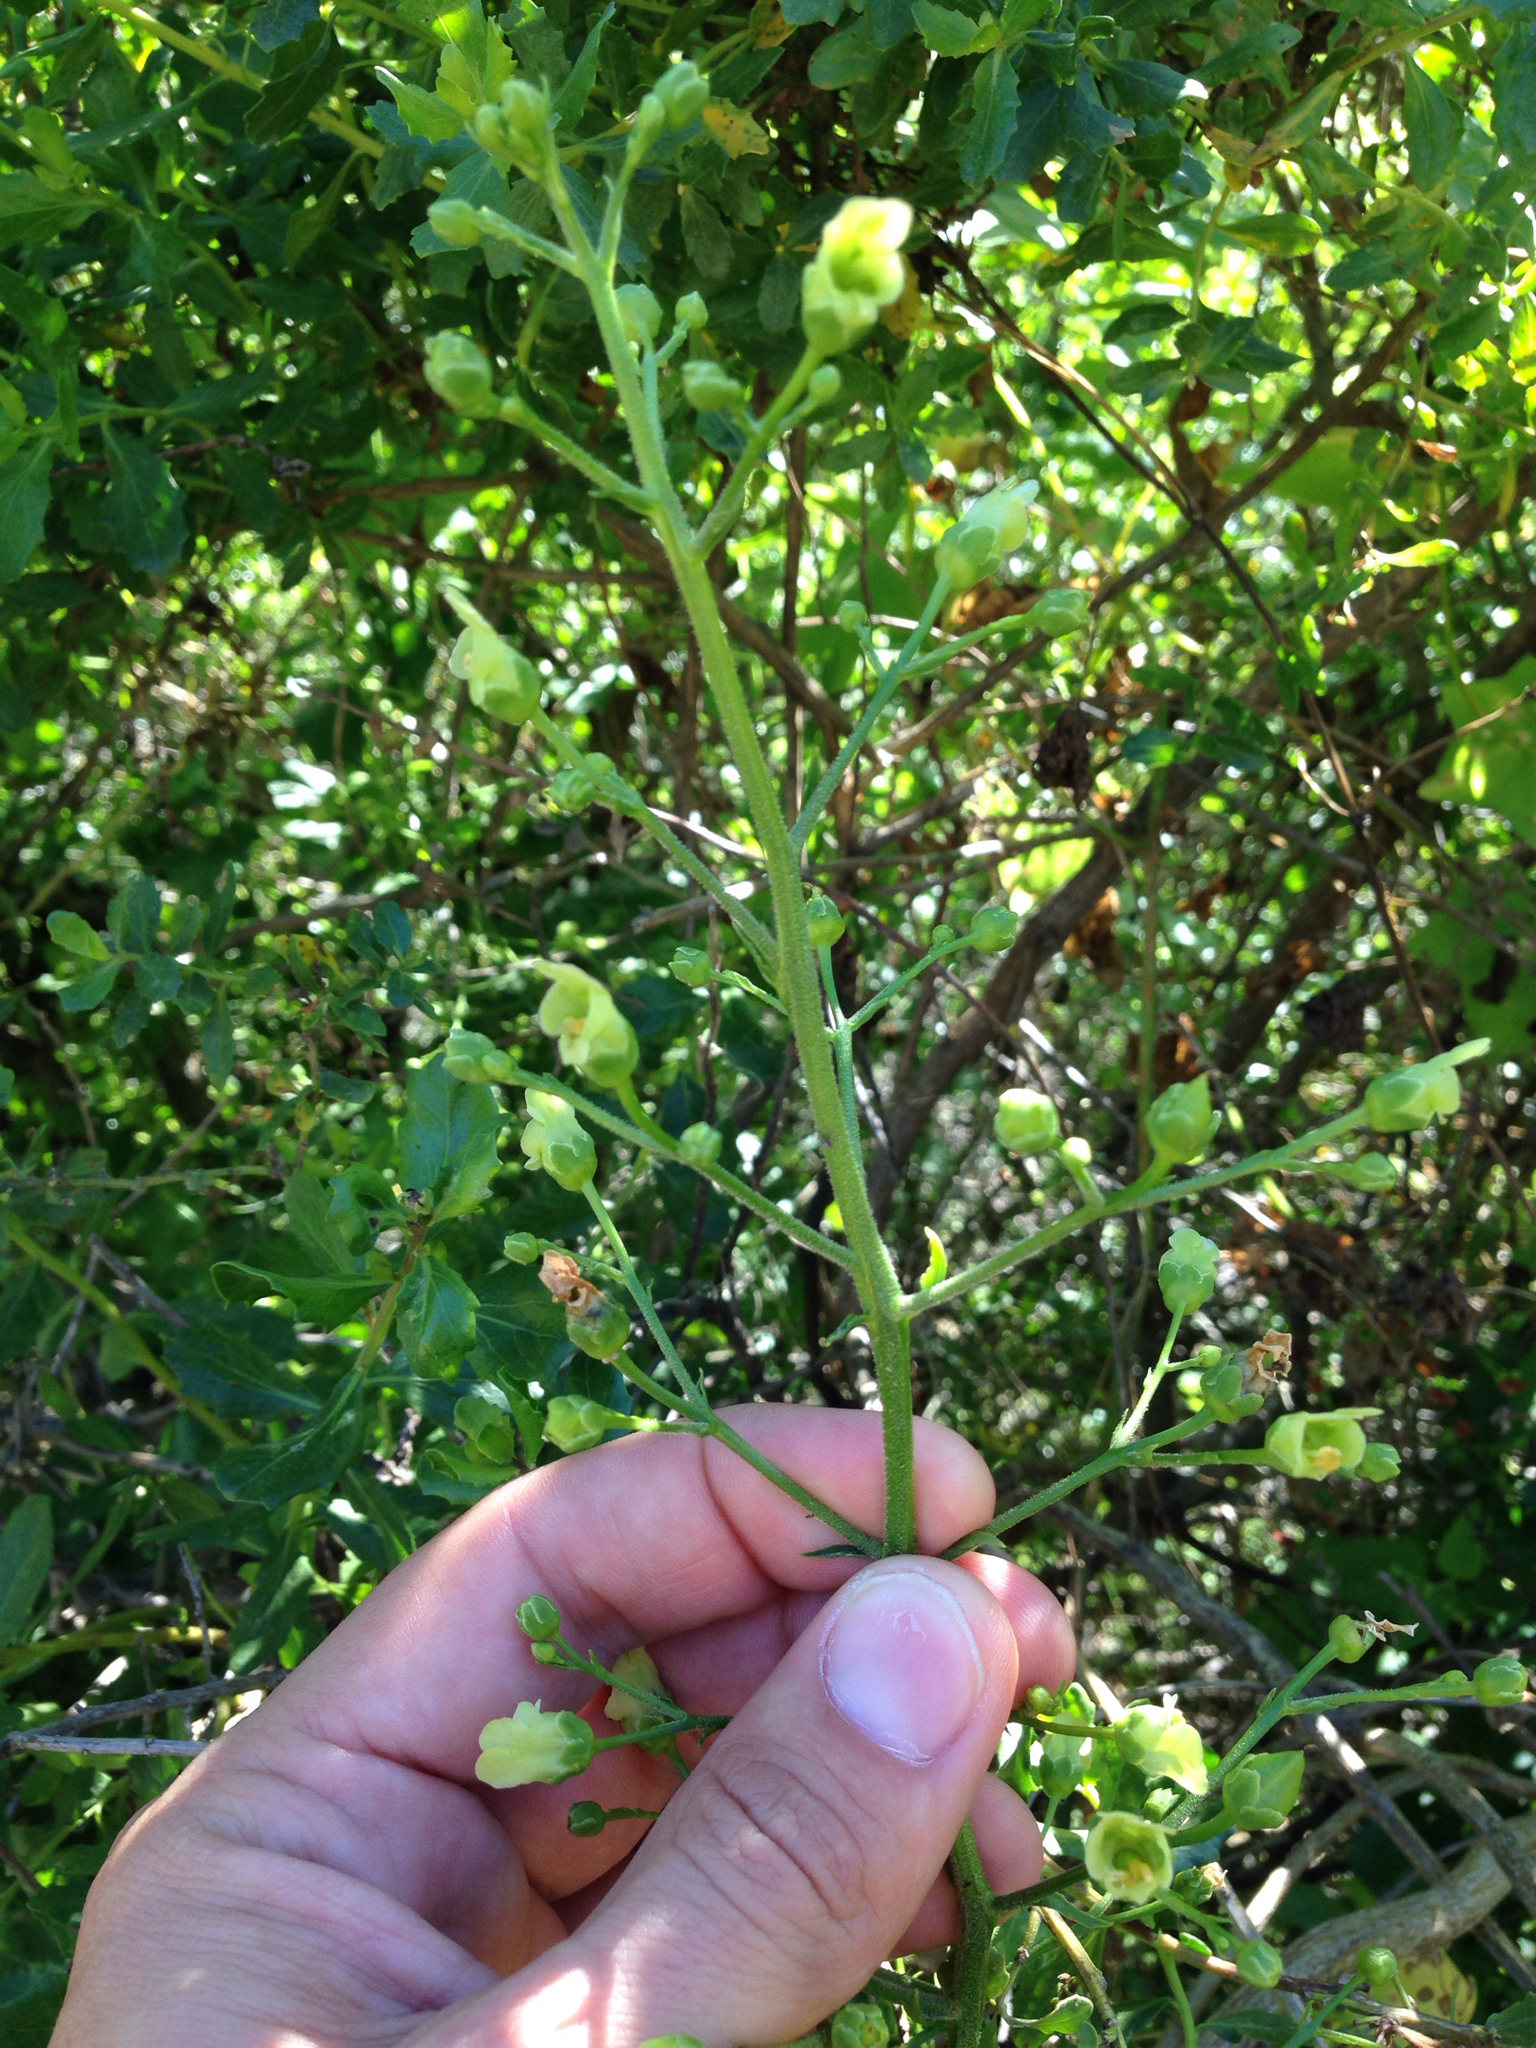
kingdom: Plantae
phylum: Tracheophyta
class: Magnoliopsida
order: Lamiales
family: Scrophulariaceae
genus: Scrophularia
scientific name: Scrophularia californica
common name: California figwort
